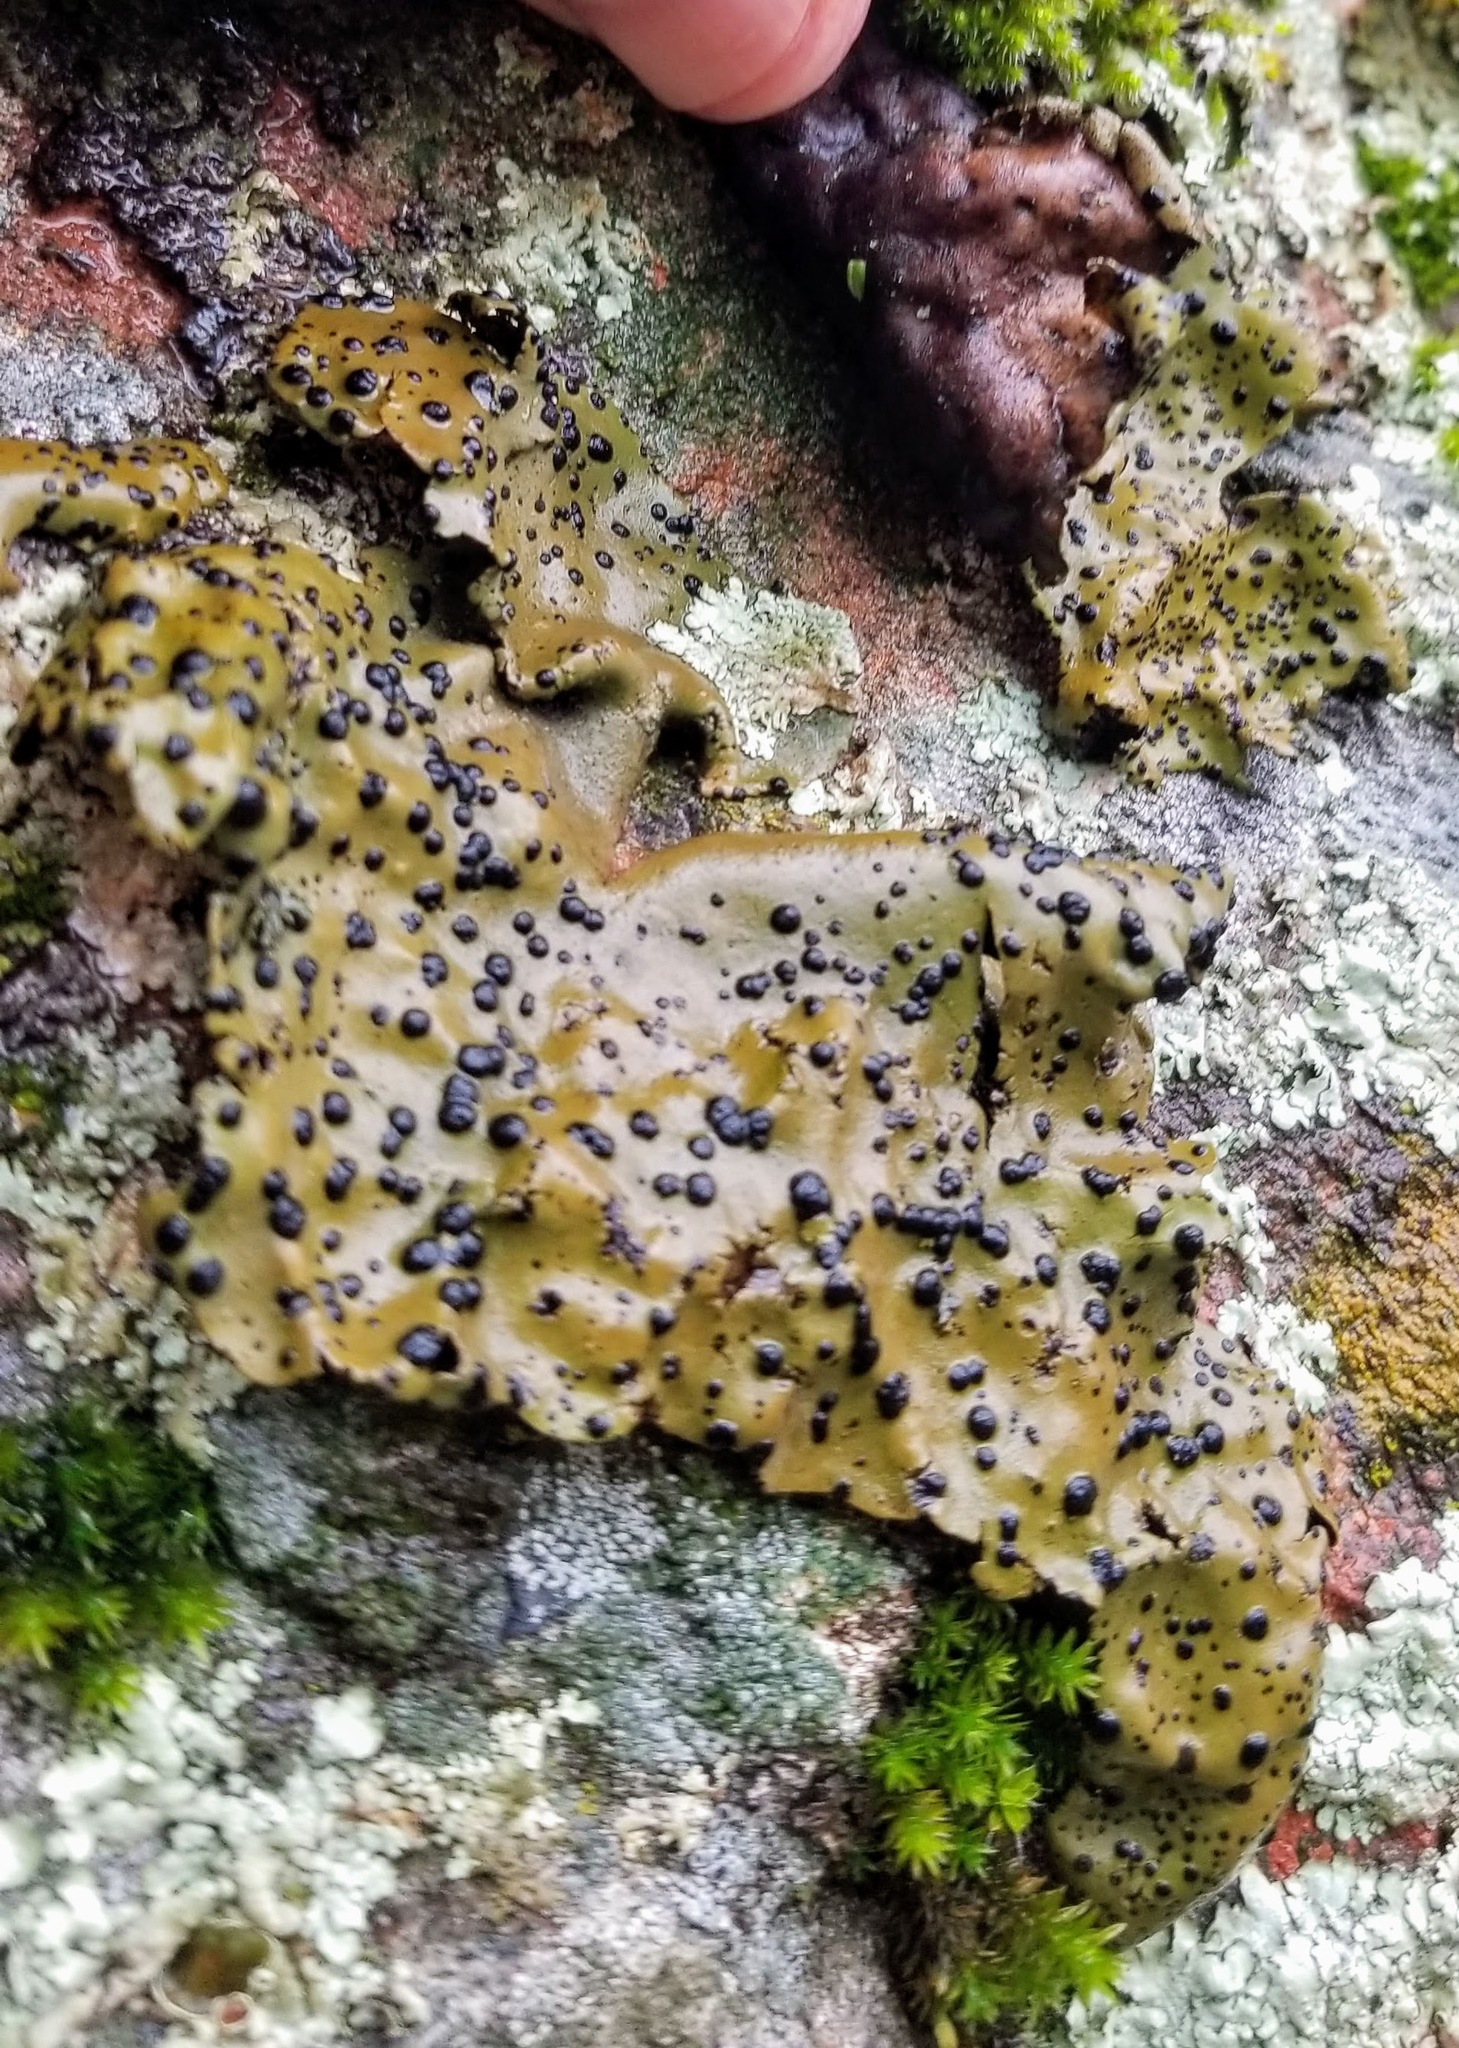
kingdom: Fungi
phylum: Ascomycota
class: Lecanoromycetes
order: Umbilicariales
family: Umbilicariaceae
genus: Umbilicaria
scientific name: Umbilicaria phaea
